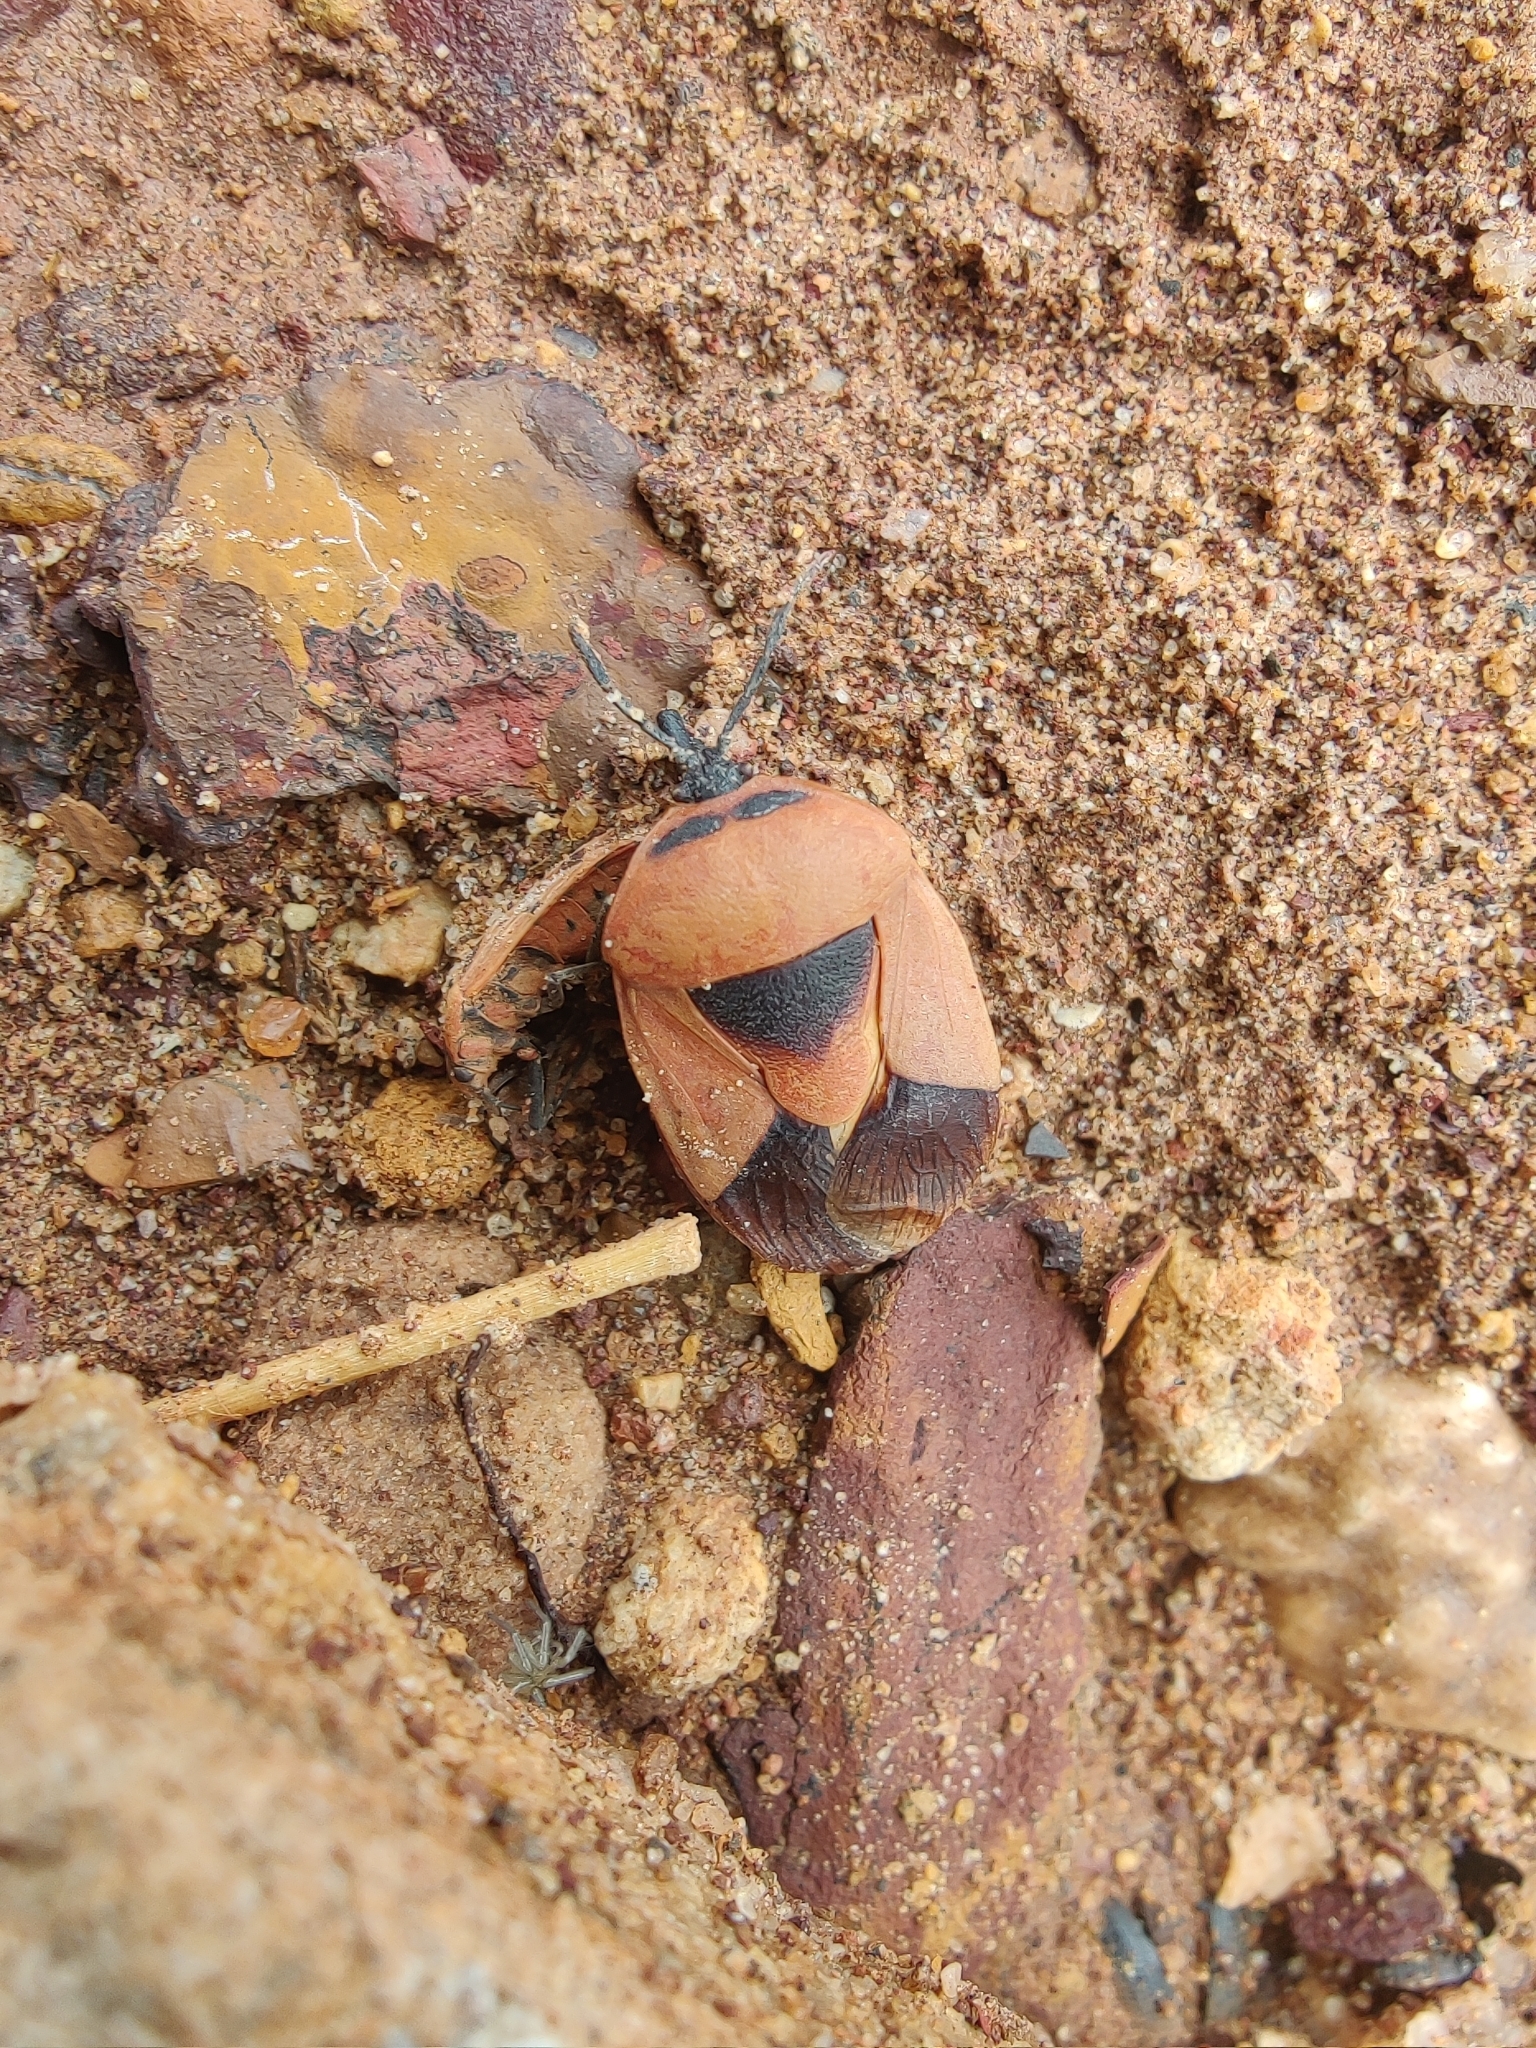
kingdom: Animalia
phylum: Arthropoda
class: Insecta
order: Hemiptera
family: Dinidoridae
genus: Coridius
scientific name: Coridius ianus
